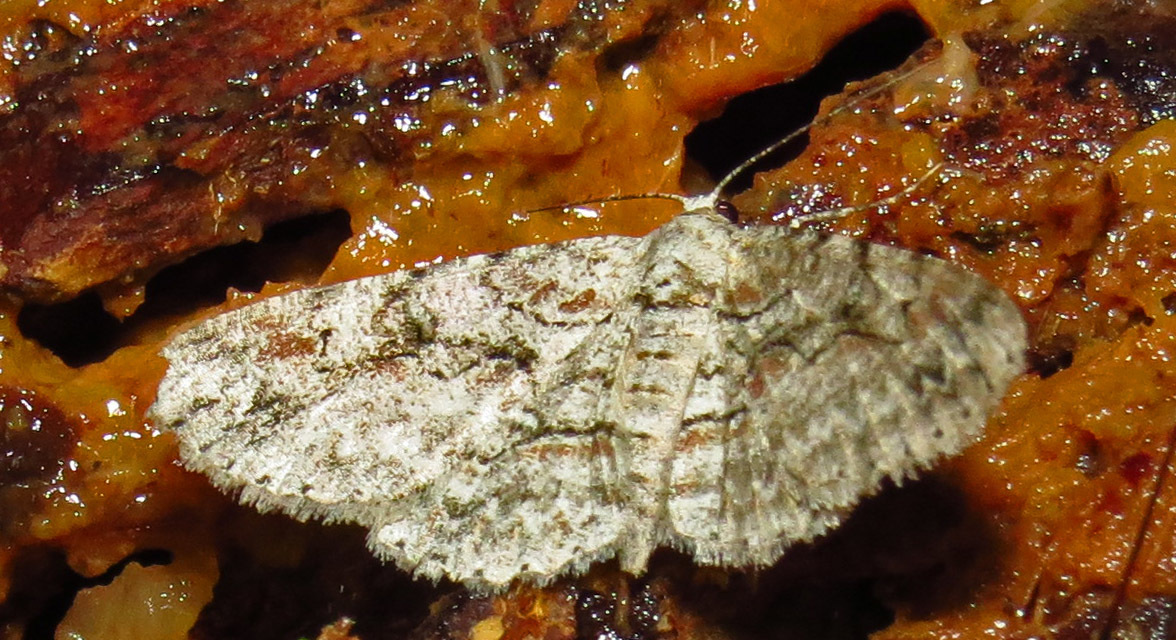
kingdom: Animalia
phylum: Arthropoda
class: Insecta
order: Lepidoptera
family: Geometridae
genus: Iridopsis
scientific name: Iridopsis defectaria
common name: Brown-shaded gray
